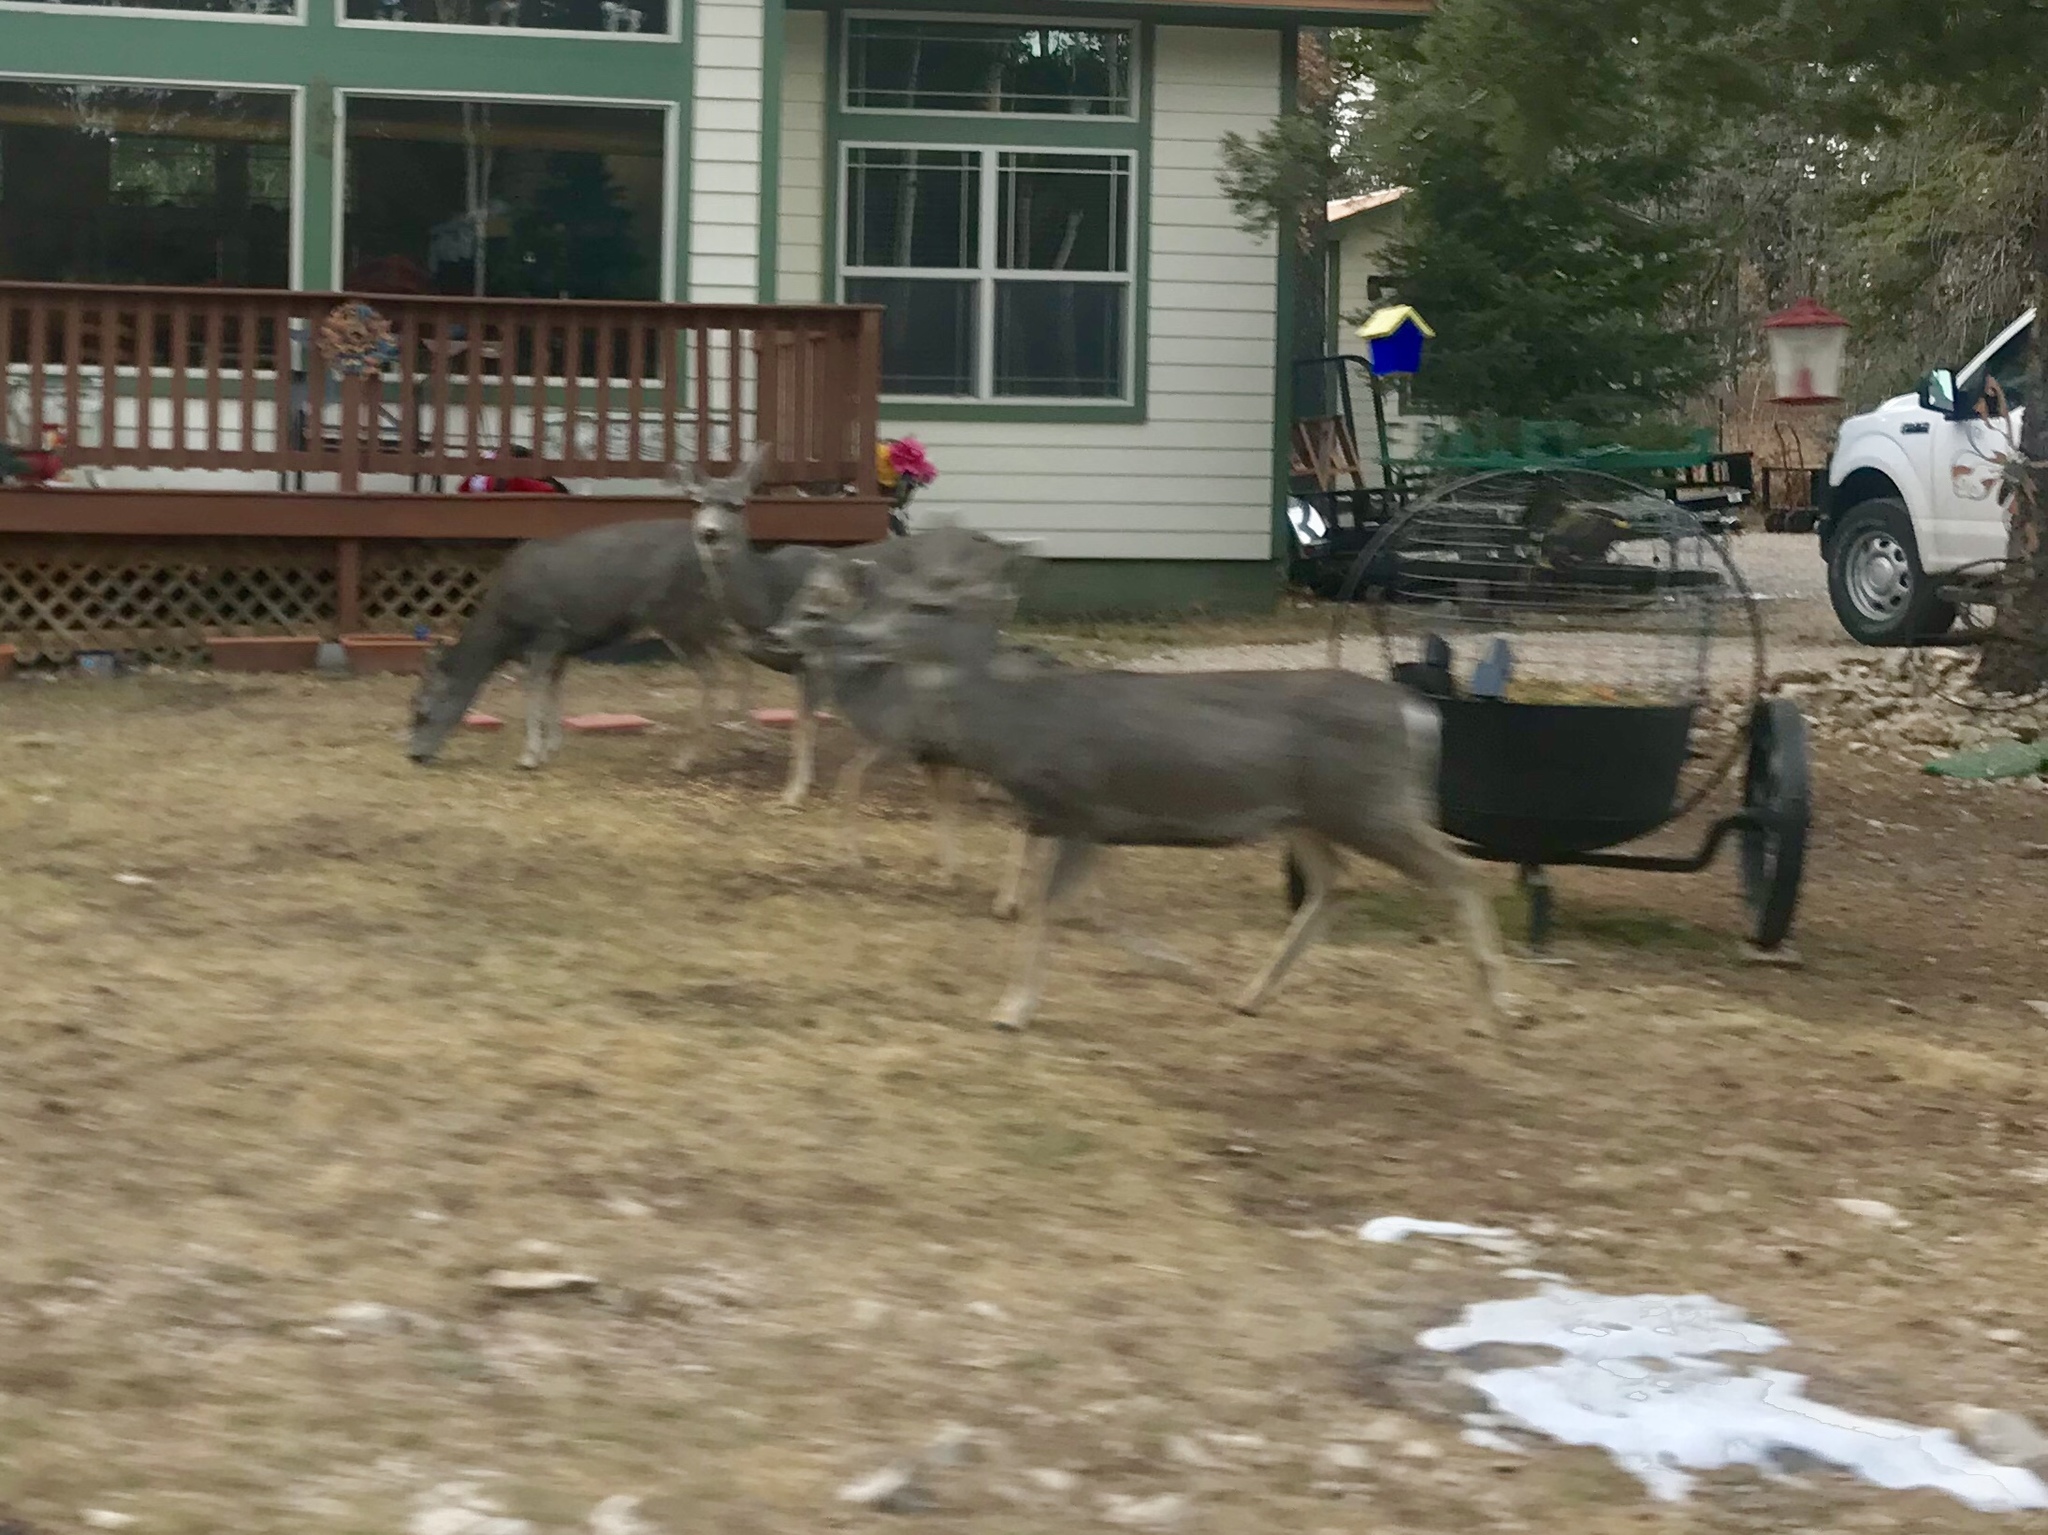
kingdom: Animalia
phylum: Chordata
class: Mammalia
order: Artiodactyla
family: Cervidae
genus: Odocoileus
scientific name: Odocoileus hemionus
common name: Mule deer
